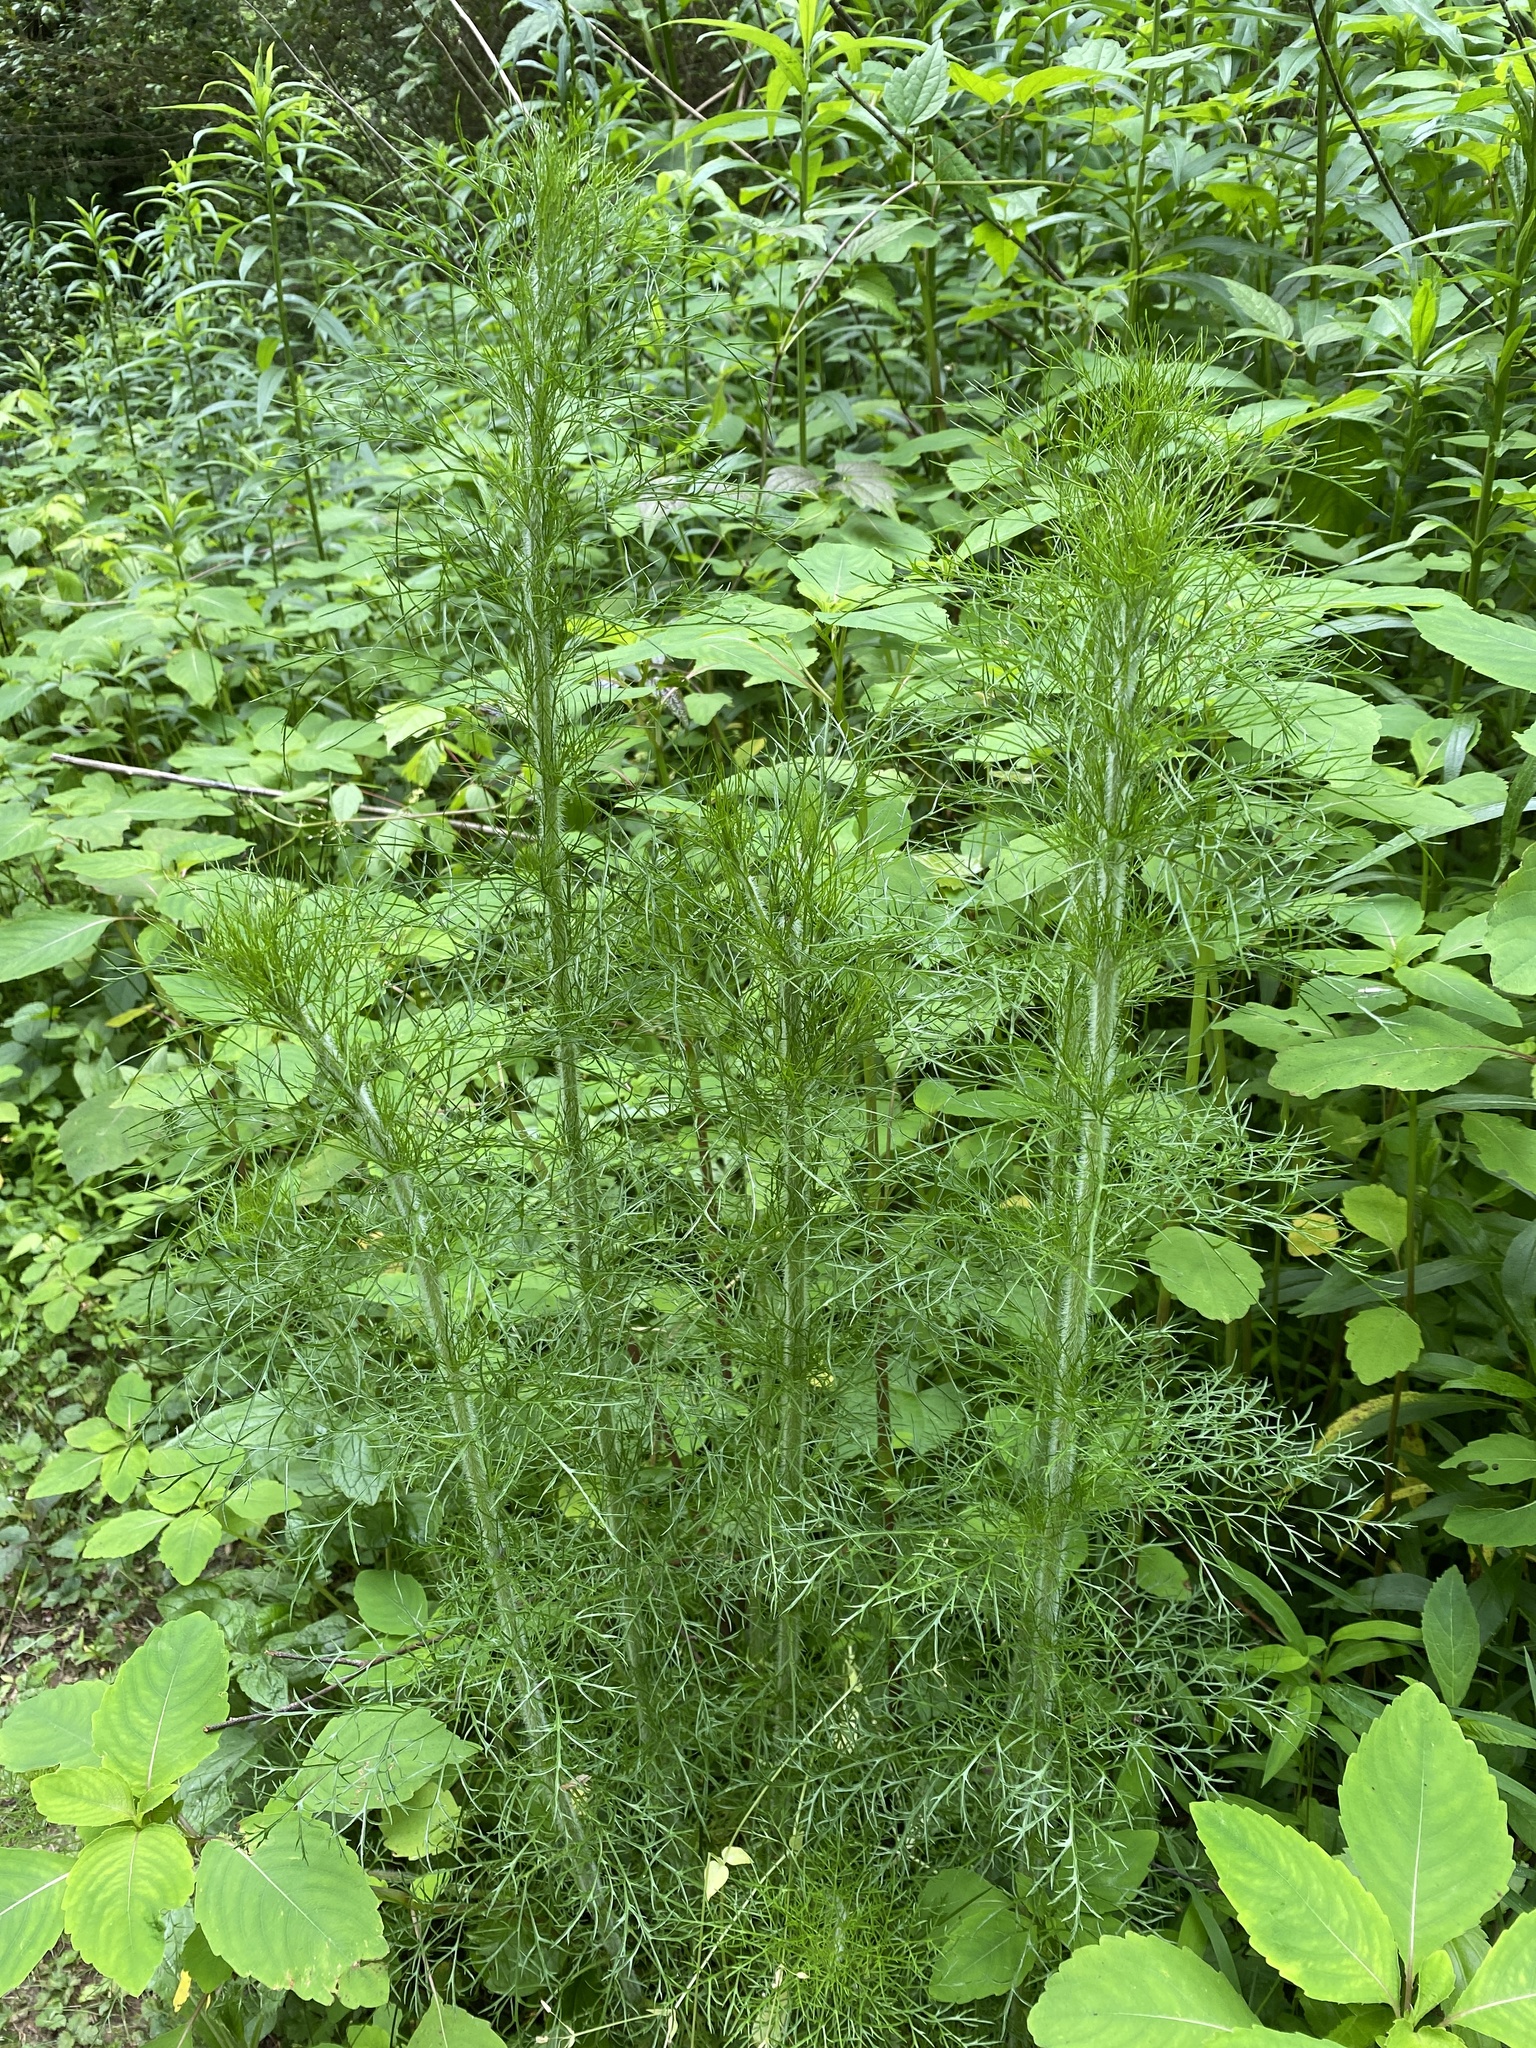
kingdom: Plantae
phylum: Tracheophyta
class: Magnoliopsida
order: Asterales
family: Asteraceae
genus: Eupatorium
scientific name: Eupatorium capillifolium
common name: Dog-fennel
